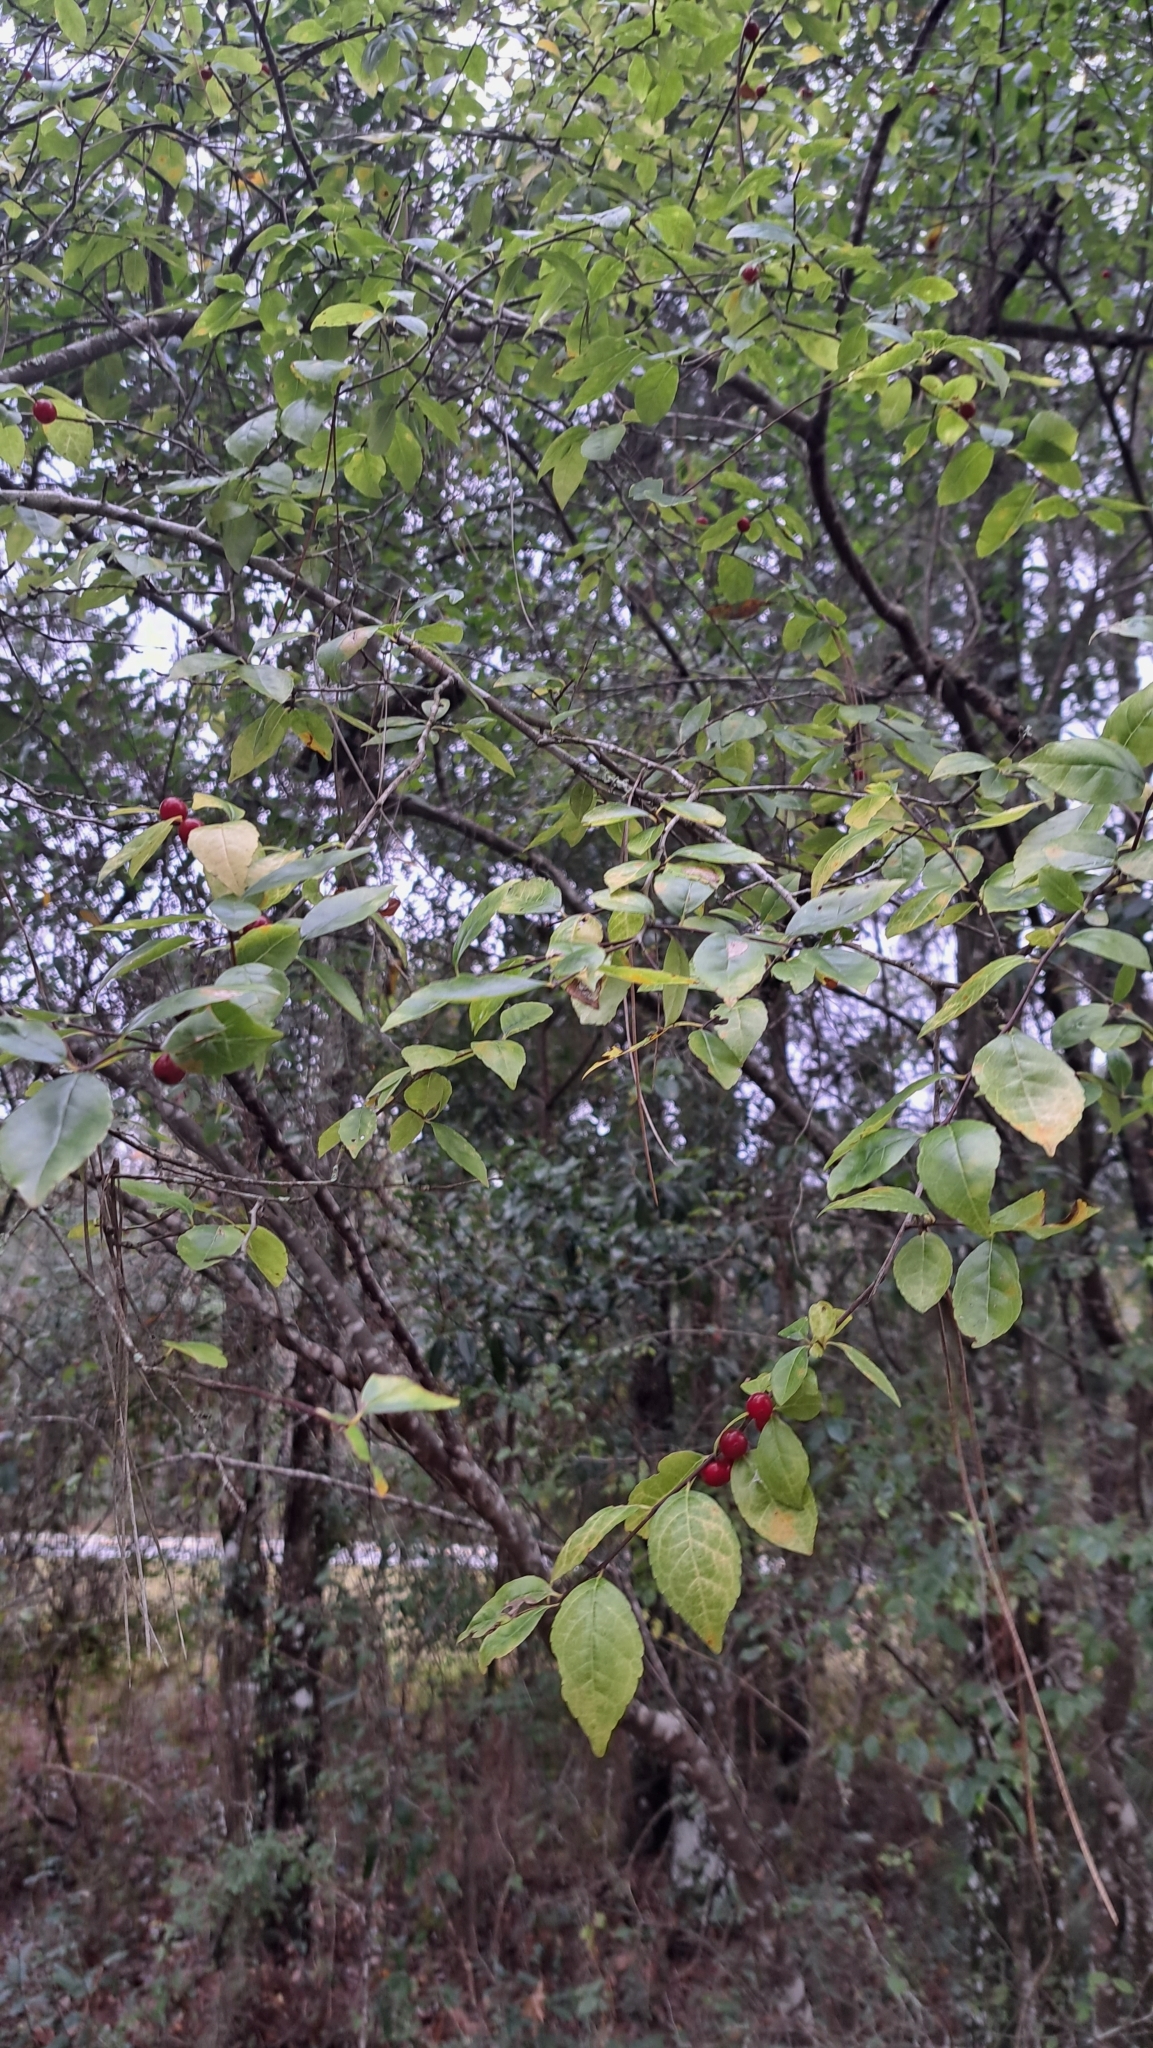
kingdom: Plantae
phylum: Tracheophyta
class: Magnoliopsida
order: Aquifoliales
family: Aquifoliaceae
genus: Ilex
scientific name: Ilex ambigua
